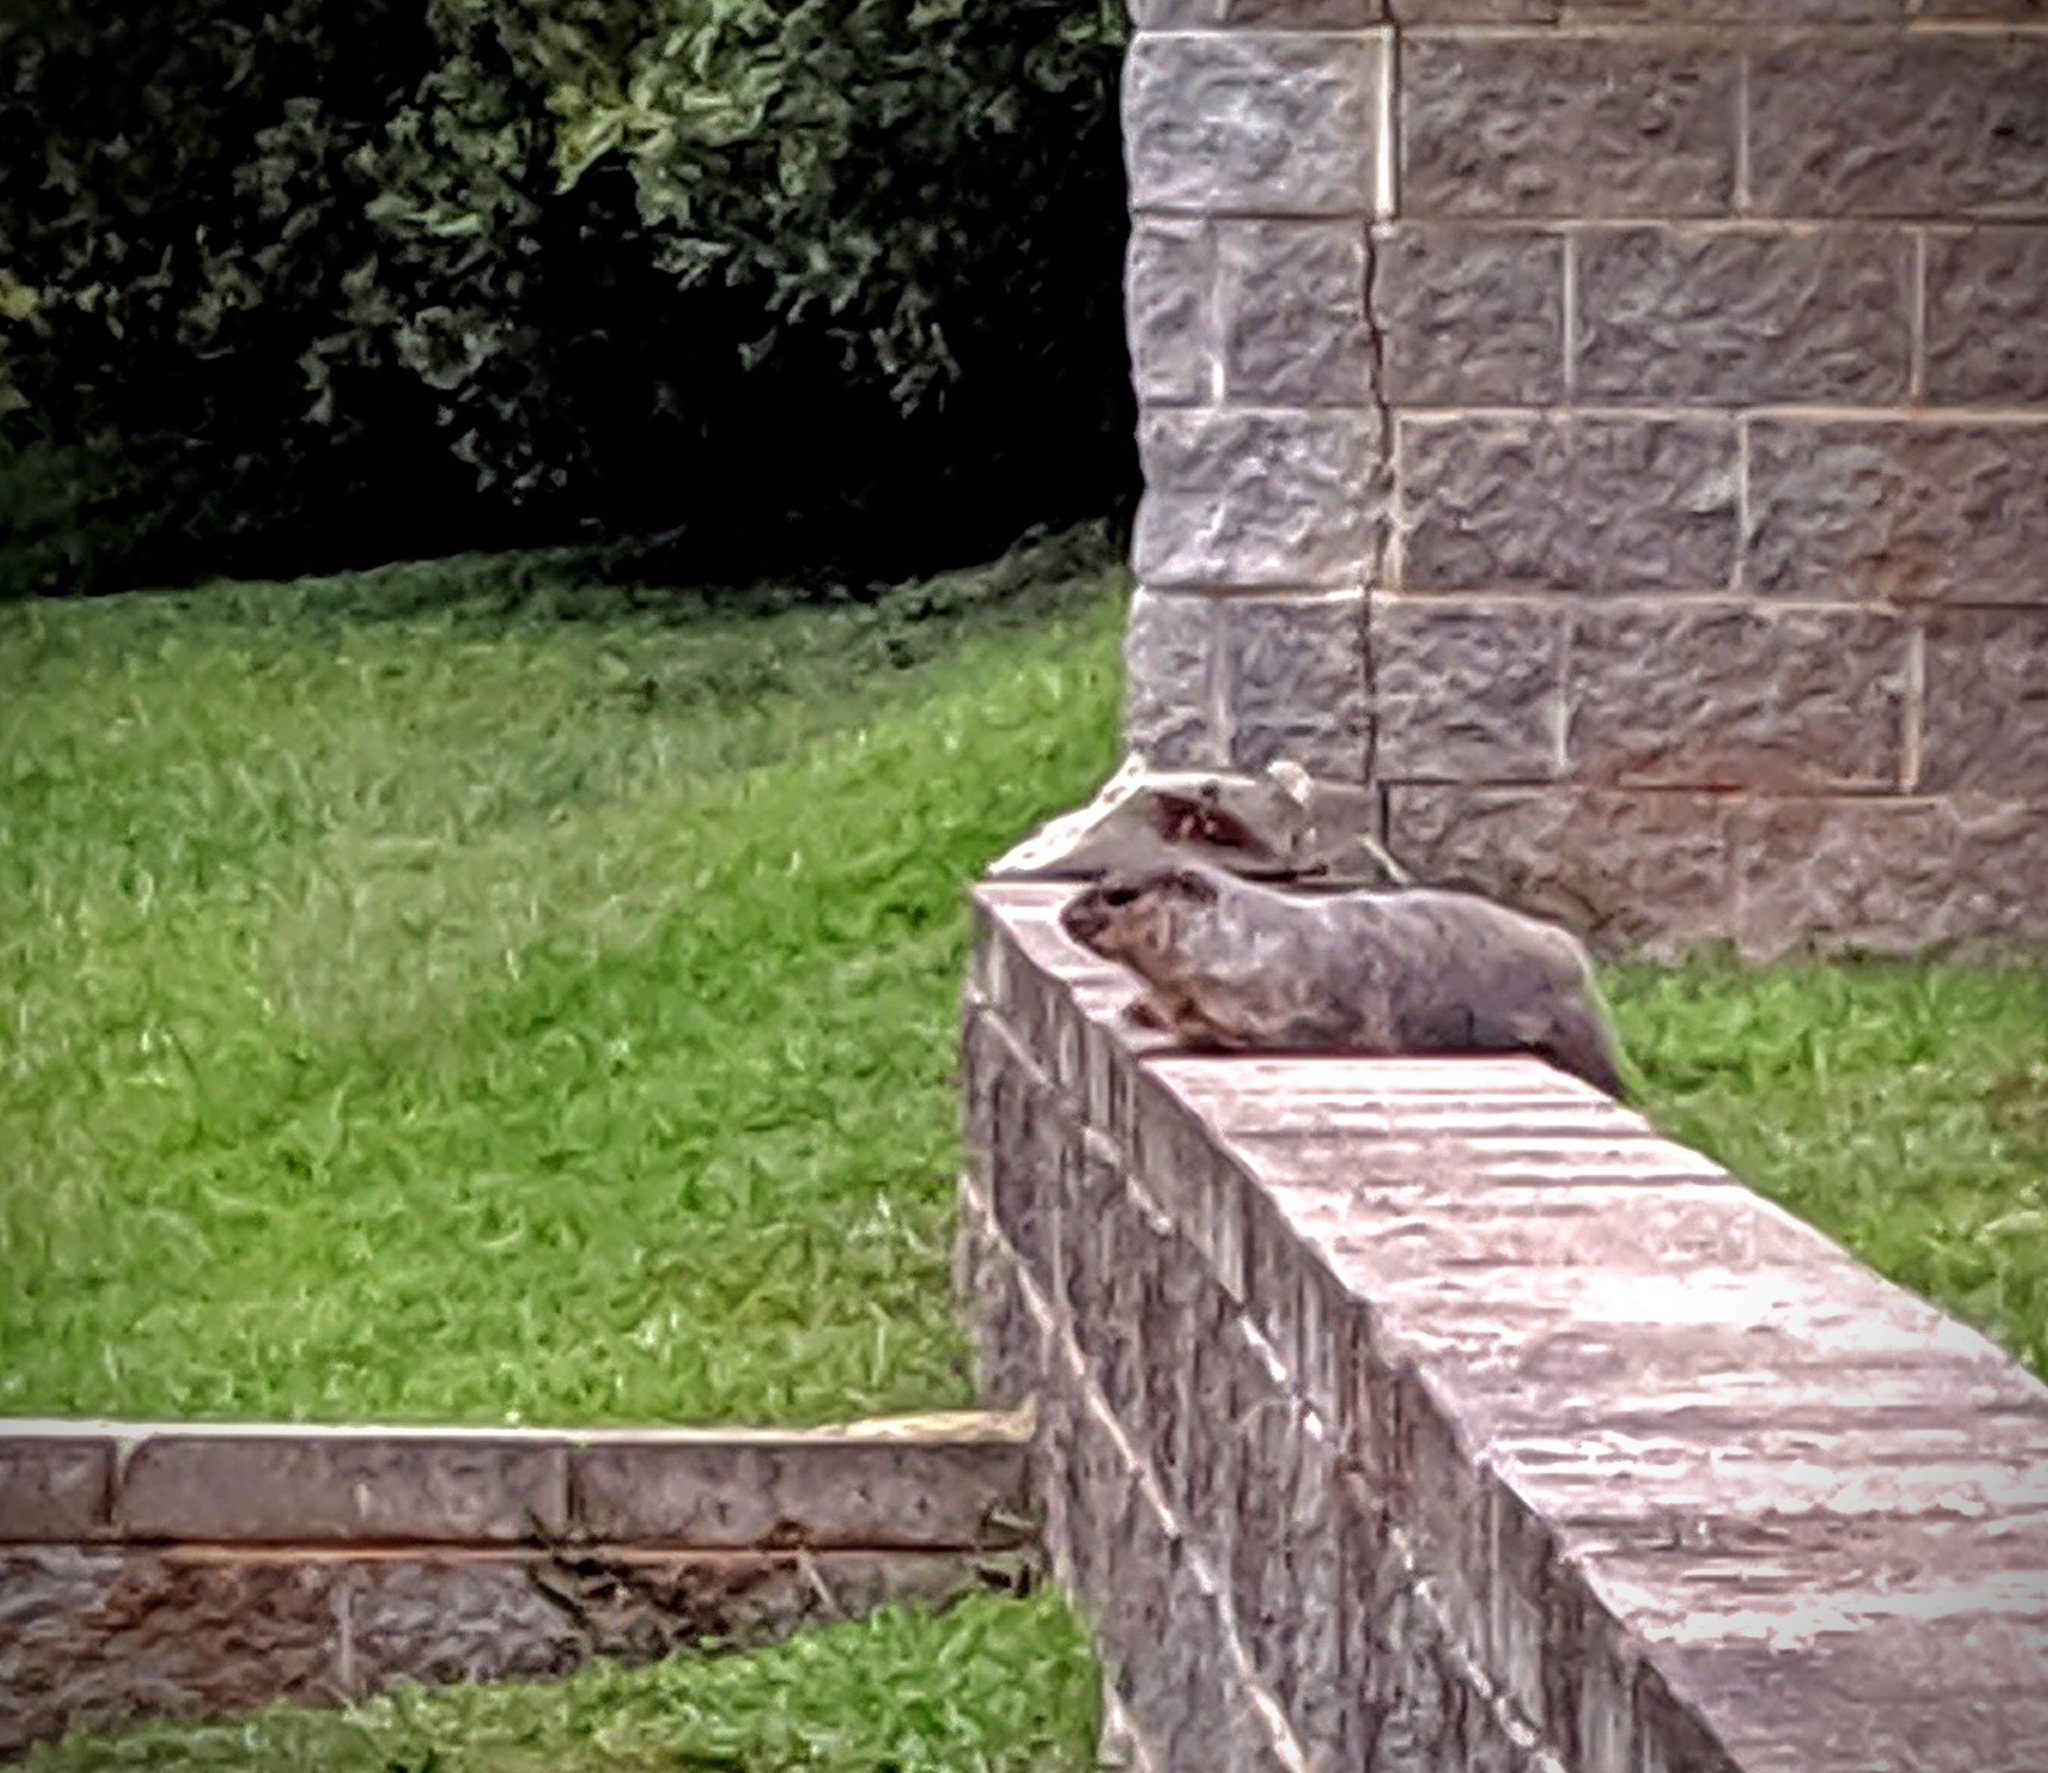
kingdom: Animalia
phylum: Chordata
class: Mammalia
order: Rodentia
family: Sciuridae
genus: Marmota
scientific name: Marmota monax
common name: Groundhog
